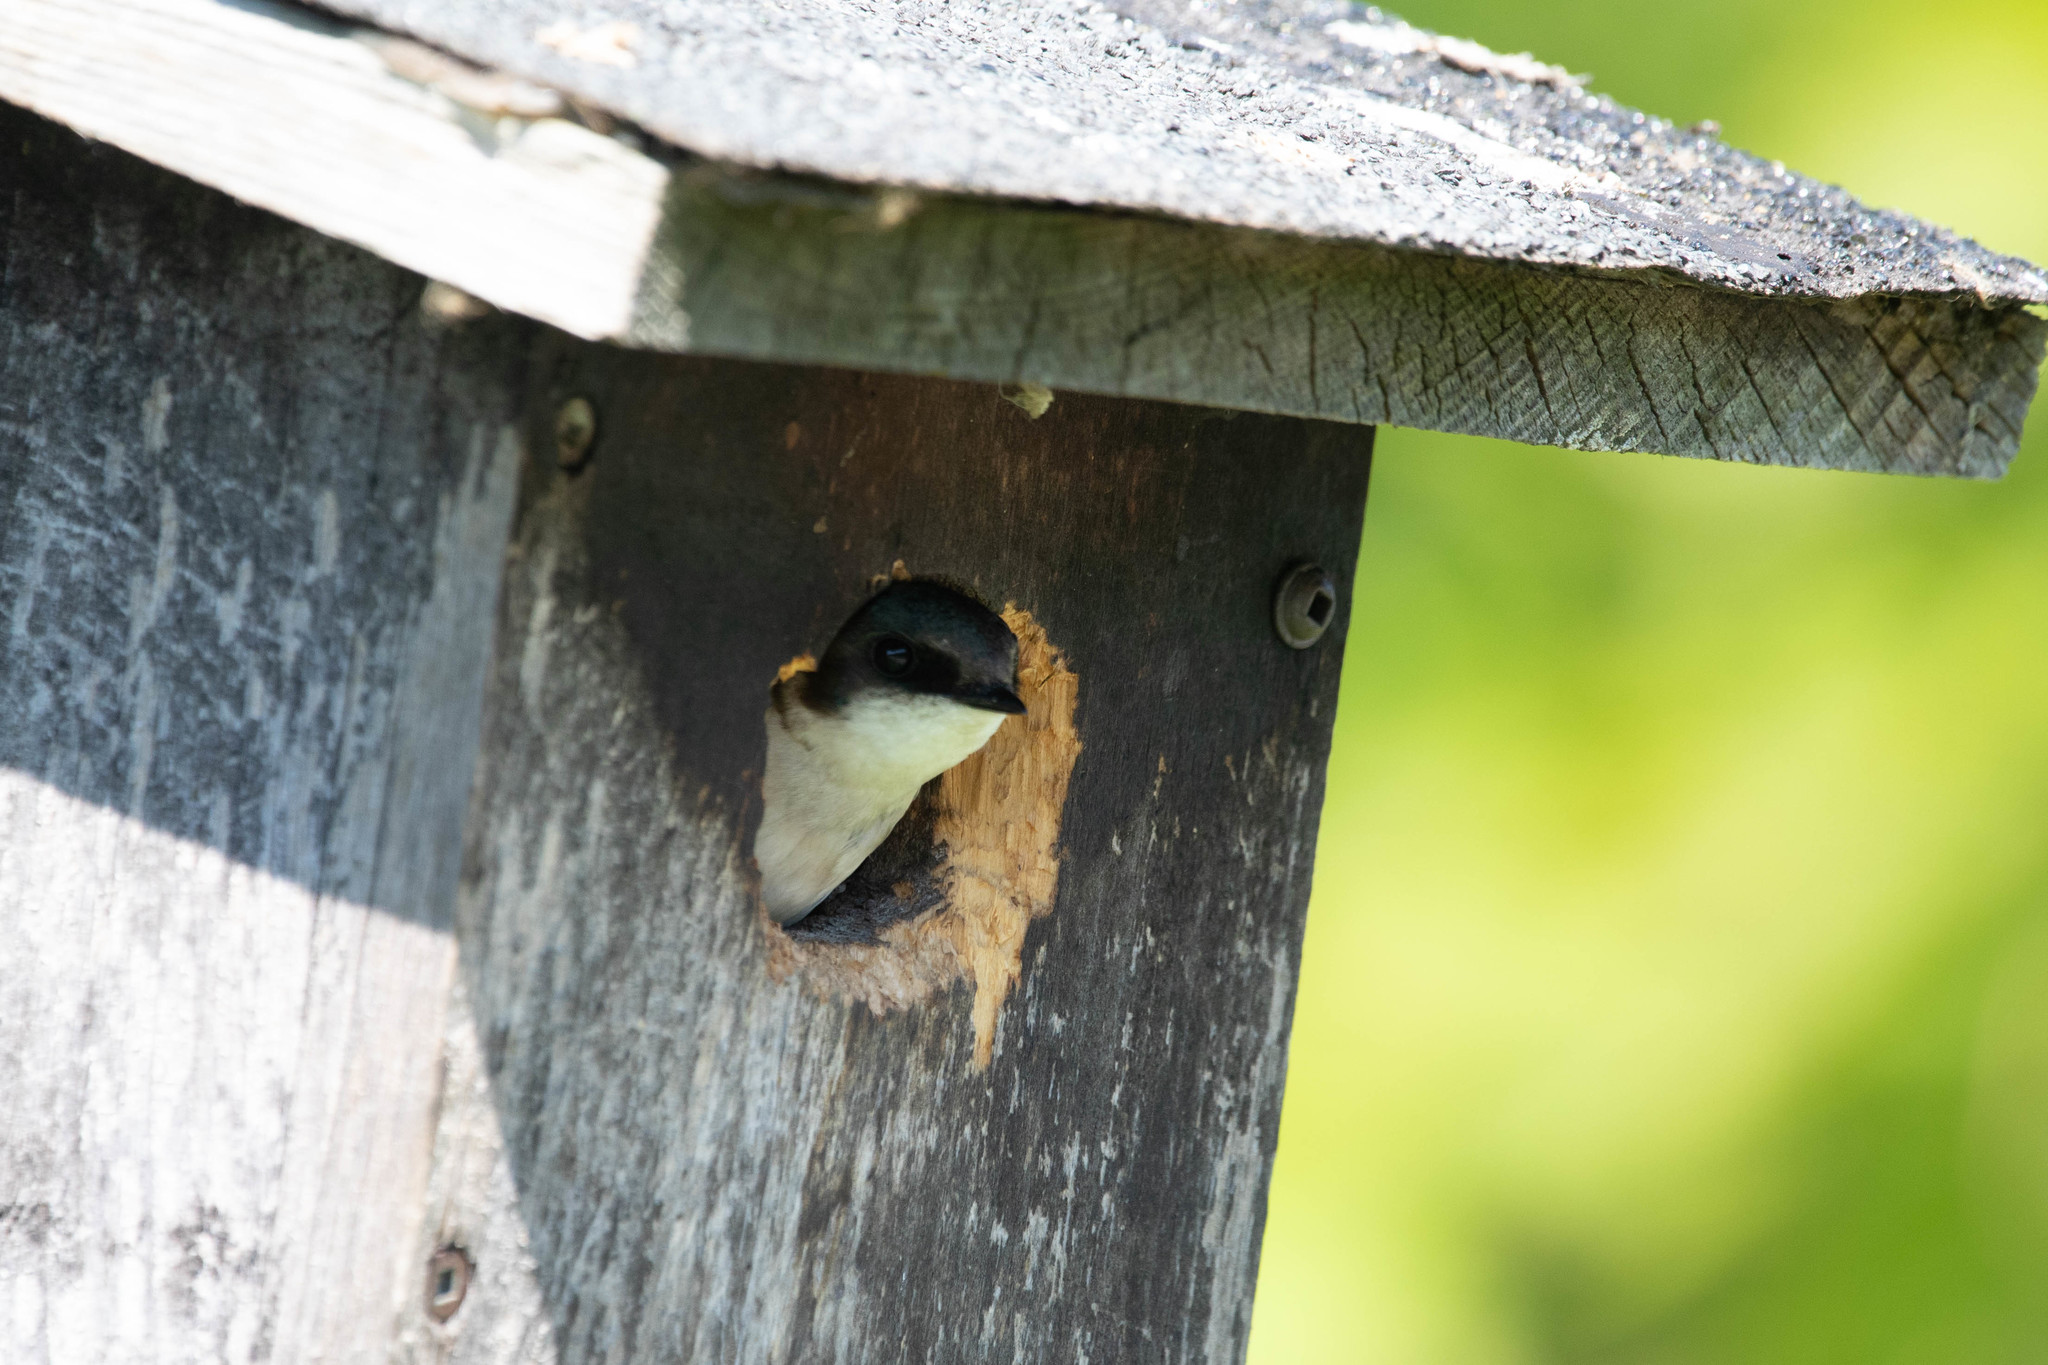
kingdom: Animalia
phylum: Chordata
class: Aves
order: Passeriformes
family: Hirundinidae
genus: Tachycineta
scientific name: Tachycineta bicolor
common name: Tree swallow
